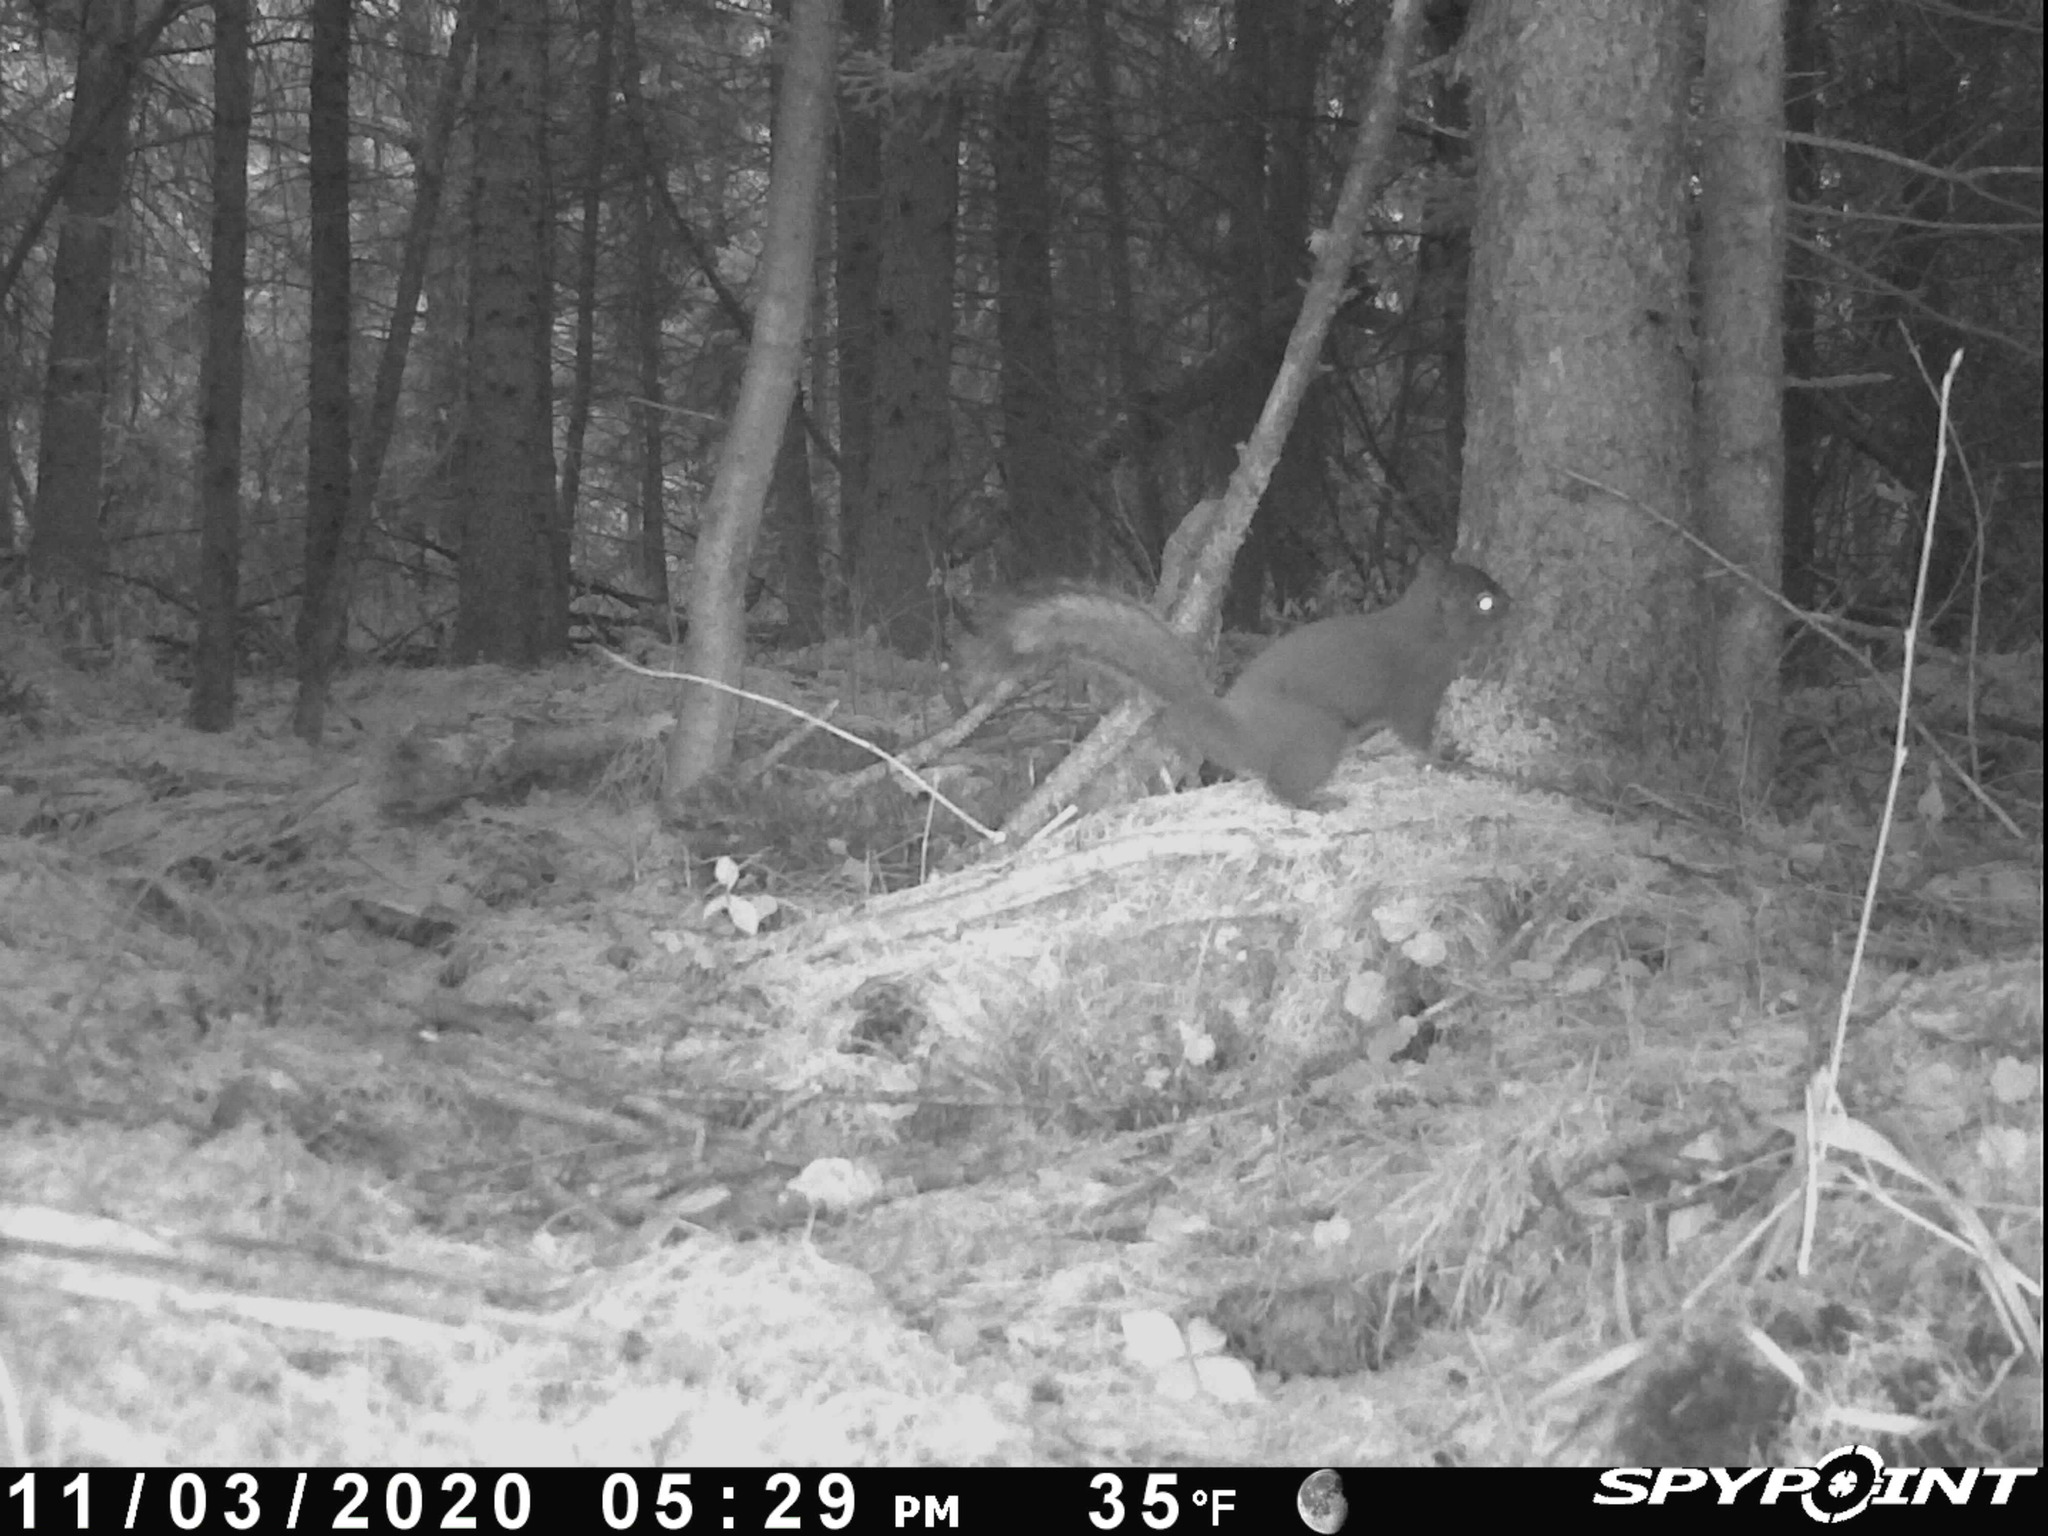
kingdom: Animalia
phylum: Chordata
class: Mammalia
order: Rodentia
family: Sciuridae
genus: Tamiasciurus
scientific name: Tamiasciurus hudsonicus
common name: Red squirrel
